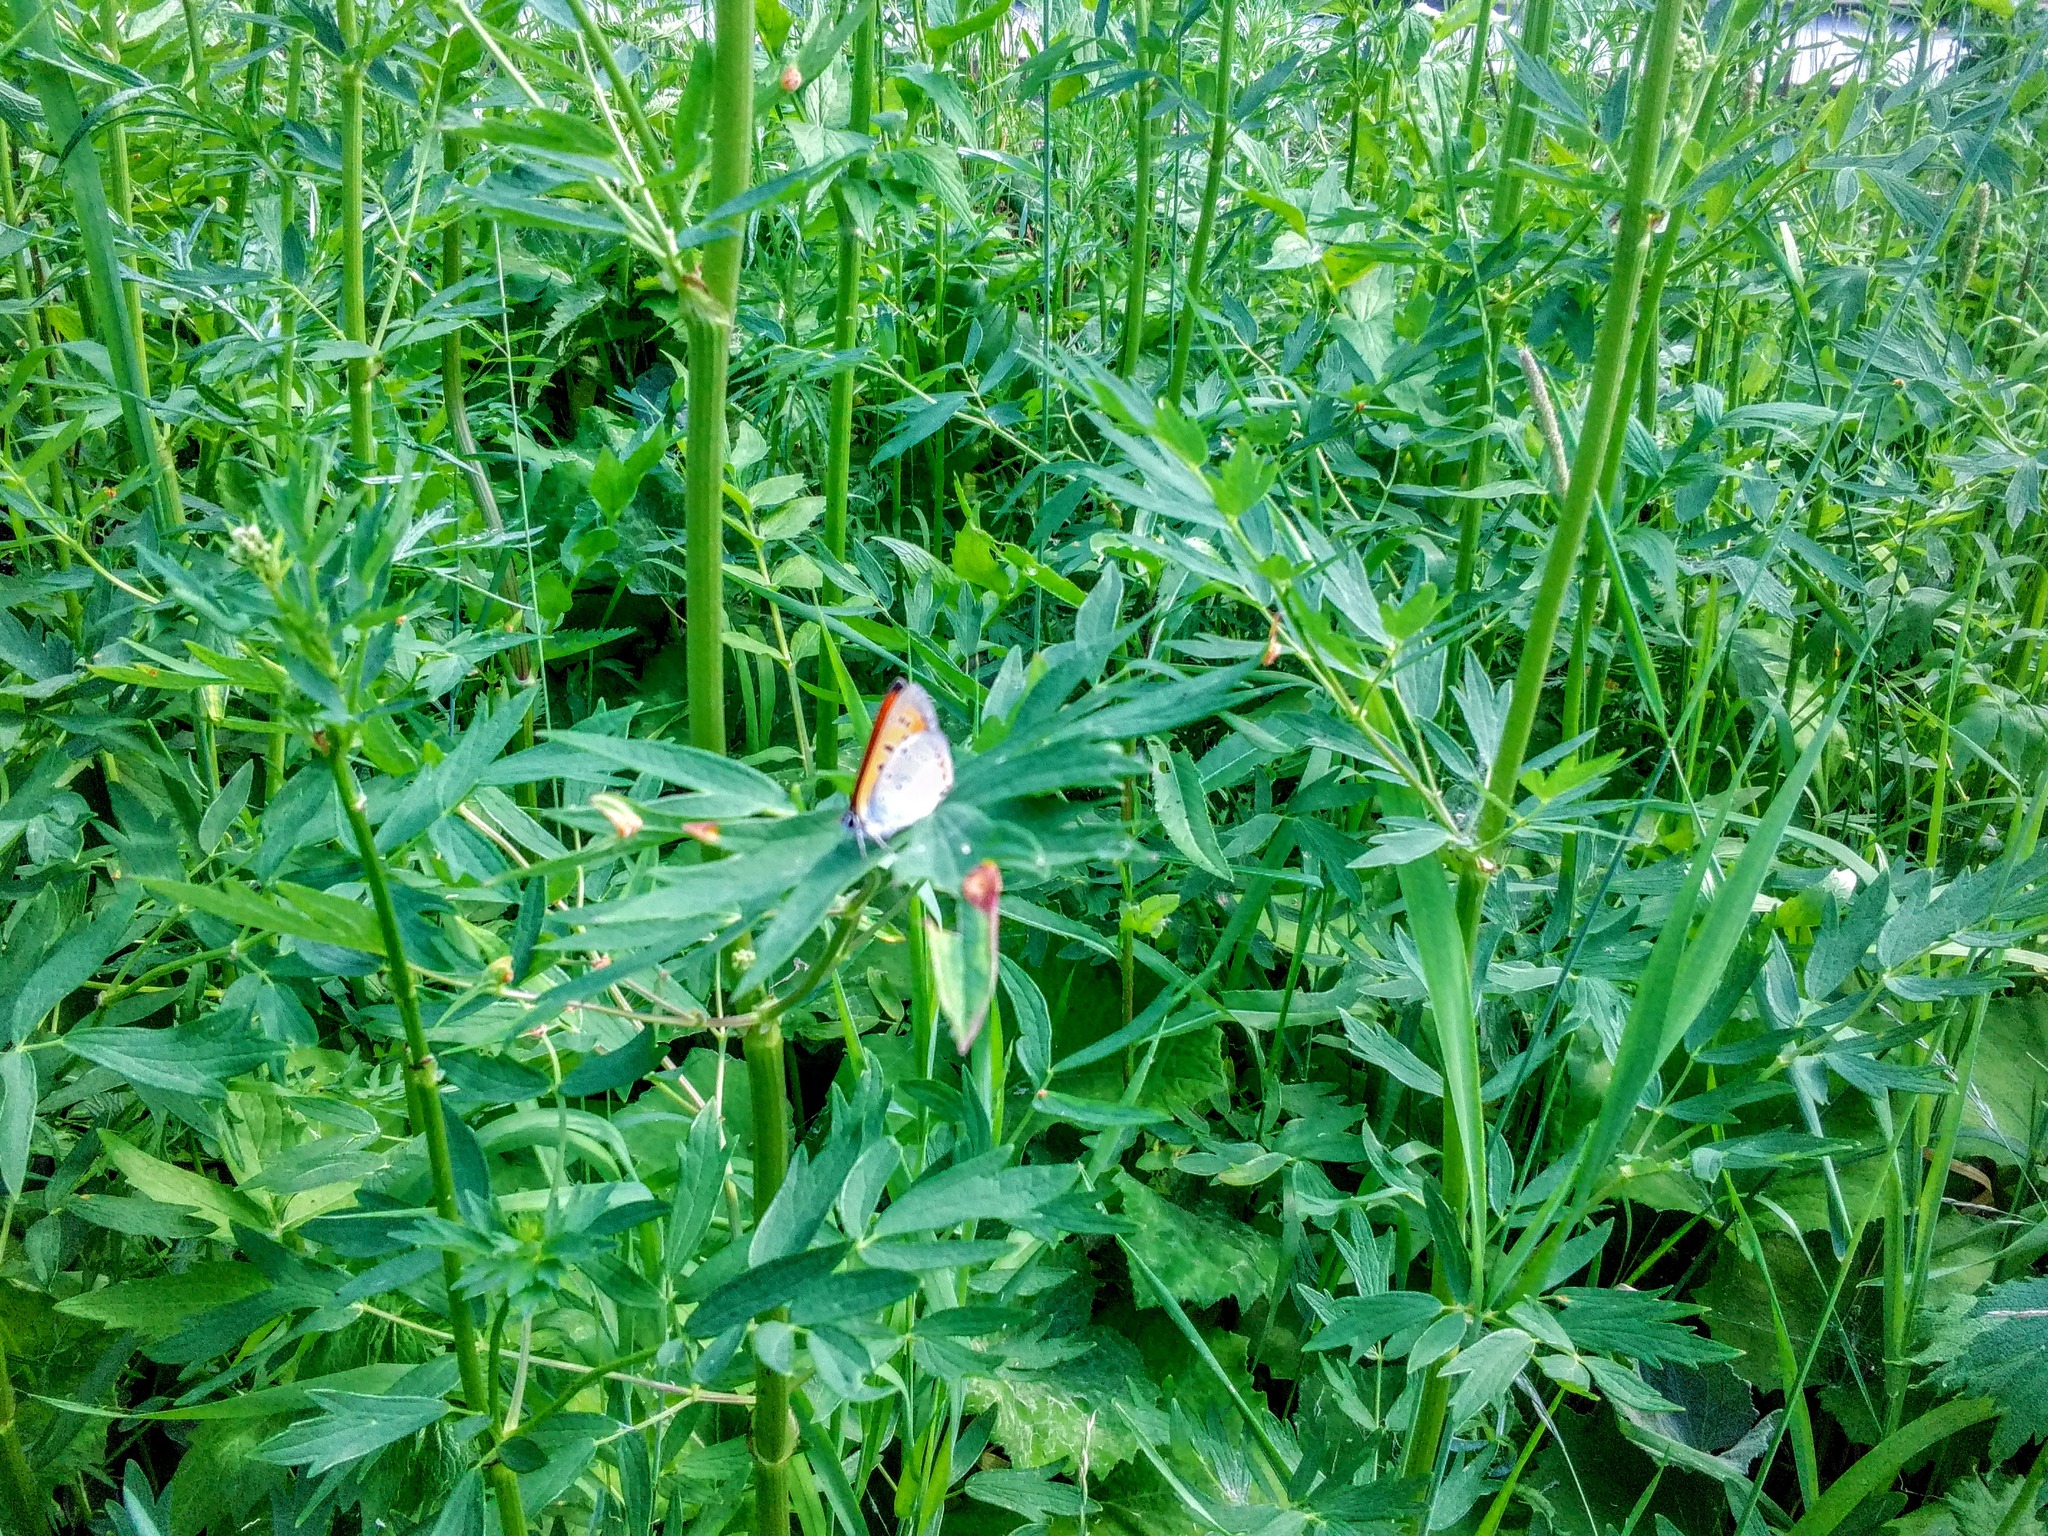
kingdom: Animalia
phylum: Arthropoda
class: Insecta
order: Lepidoptera
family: Lycaenidae
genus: Lycaena
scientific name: Lycaena dispar
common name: Large copper
